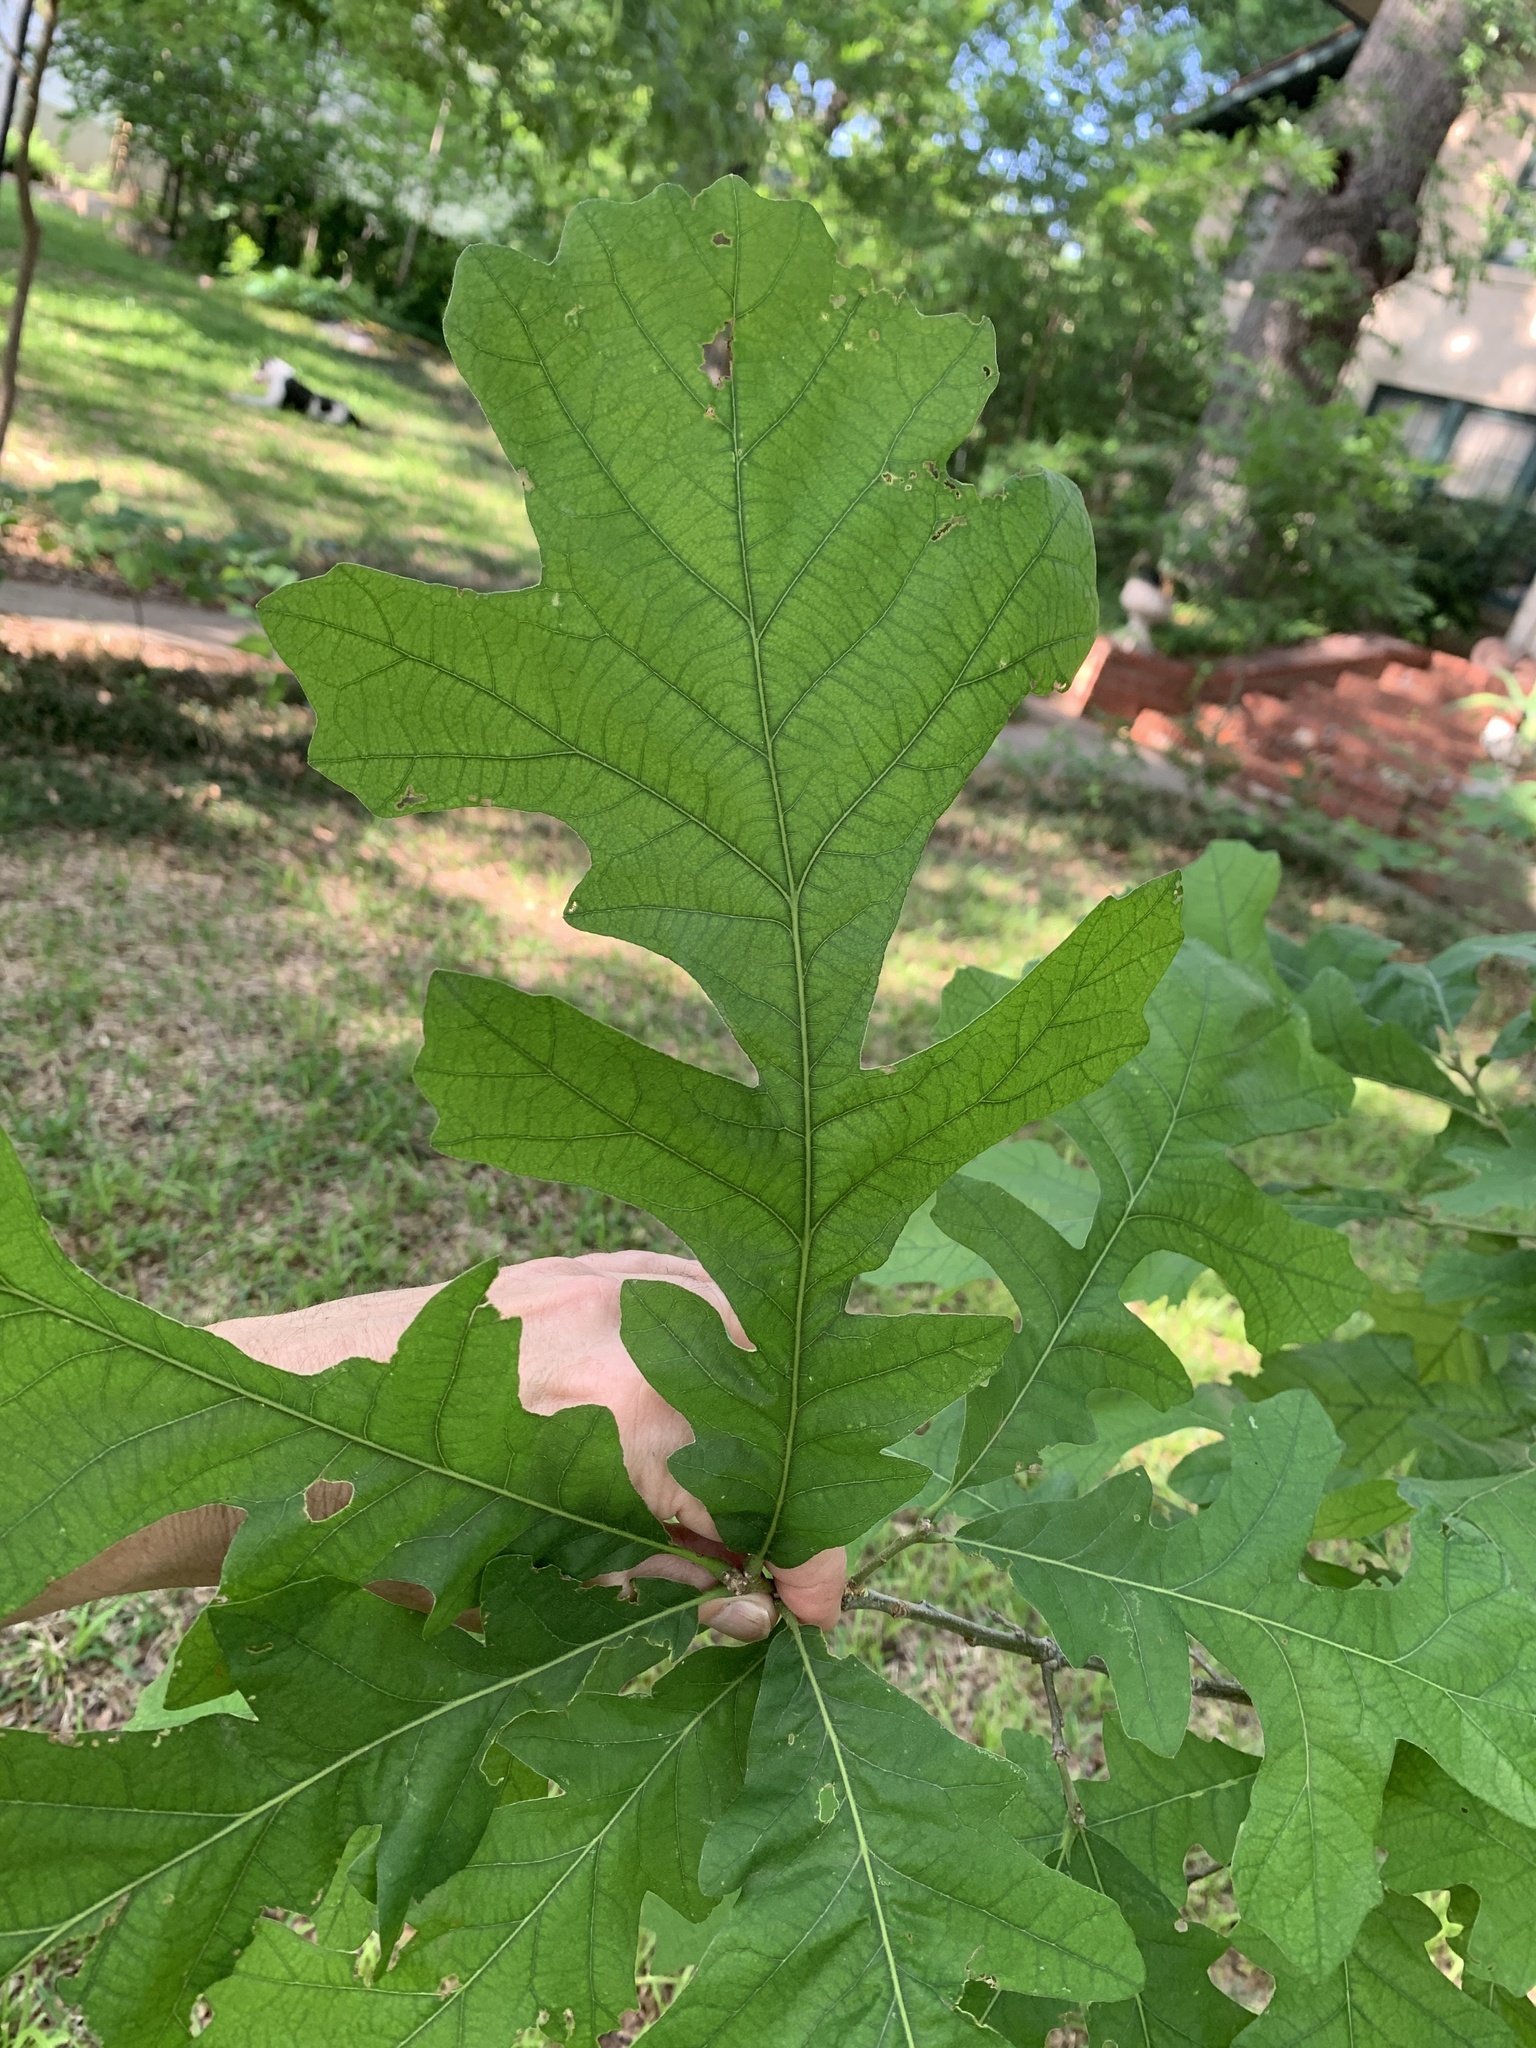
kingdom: Plantae
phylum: Tracheophyta
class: Magnoliopsida
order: Fagales
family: Fagaceae
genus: Quercus
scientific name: Quercus macrocarpa
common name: Bur oak
